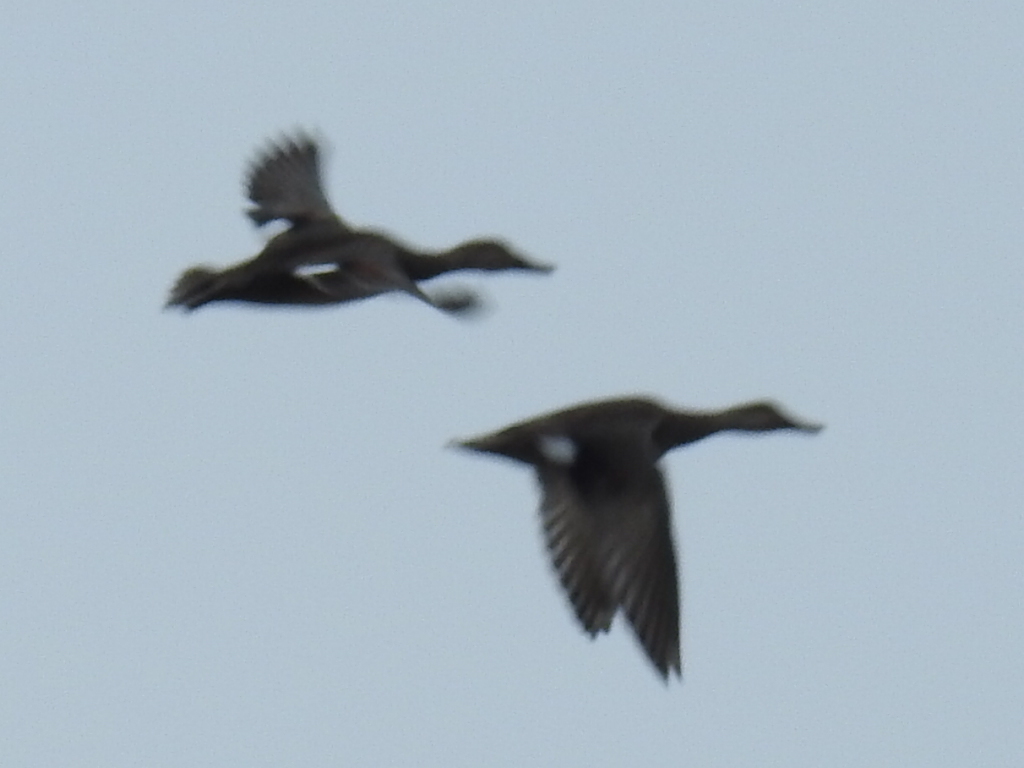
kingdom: Animalia
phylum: Chordata
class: Aves
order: Anseriformes
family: Anatidae
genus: Mareca
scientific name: Mareca strepera
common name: Gadwall
